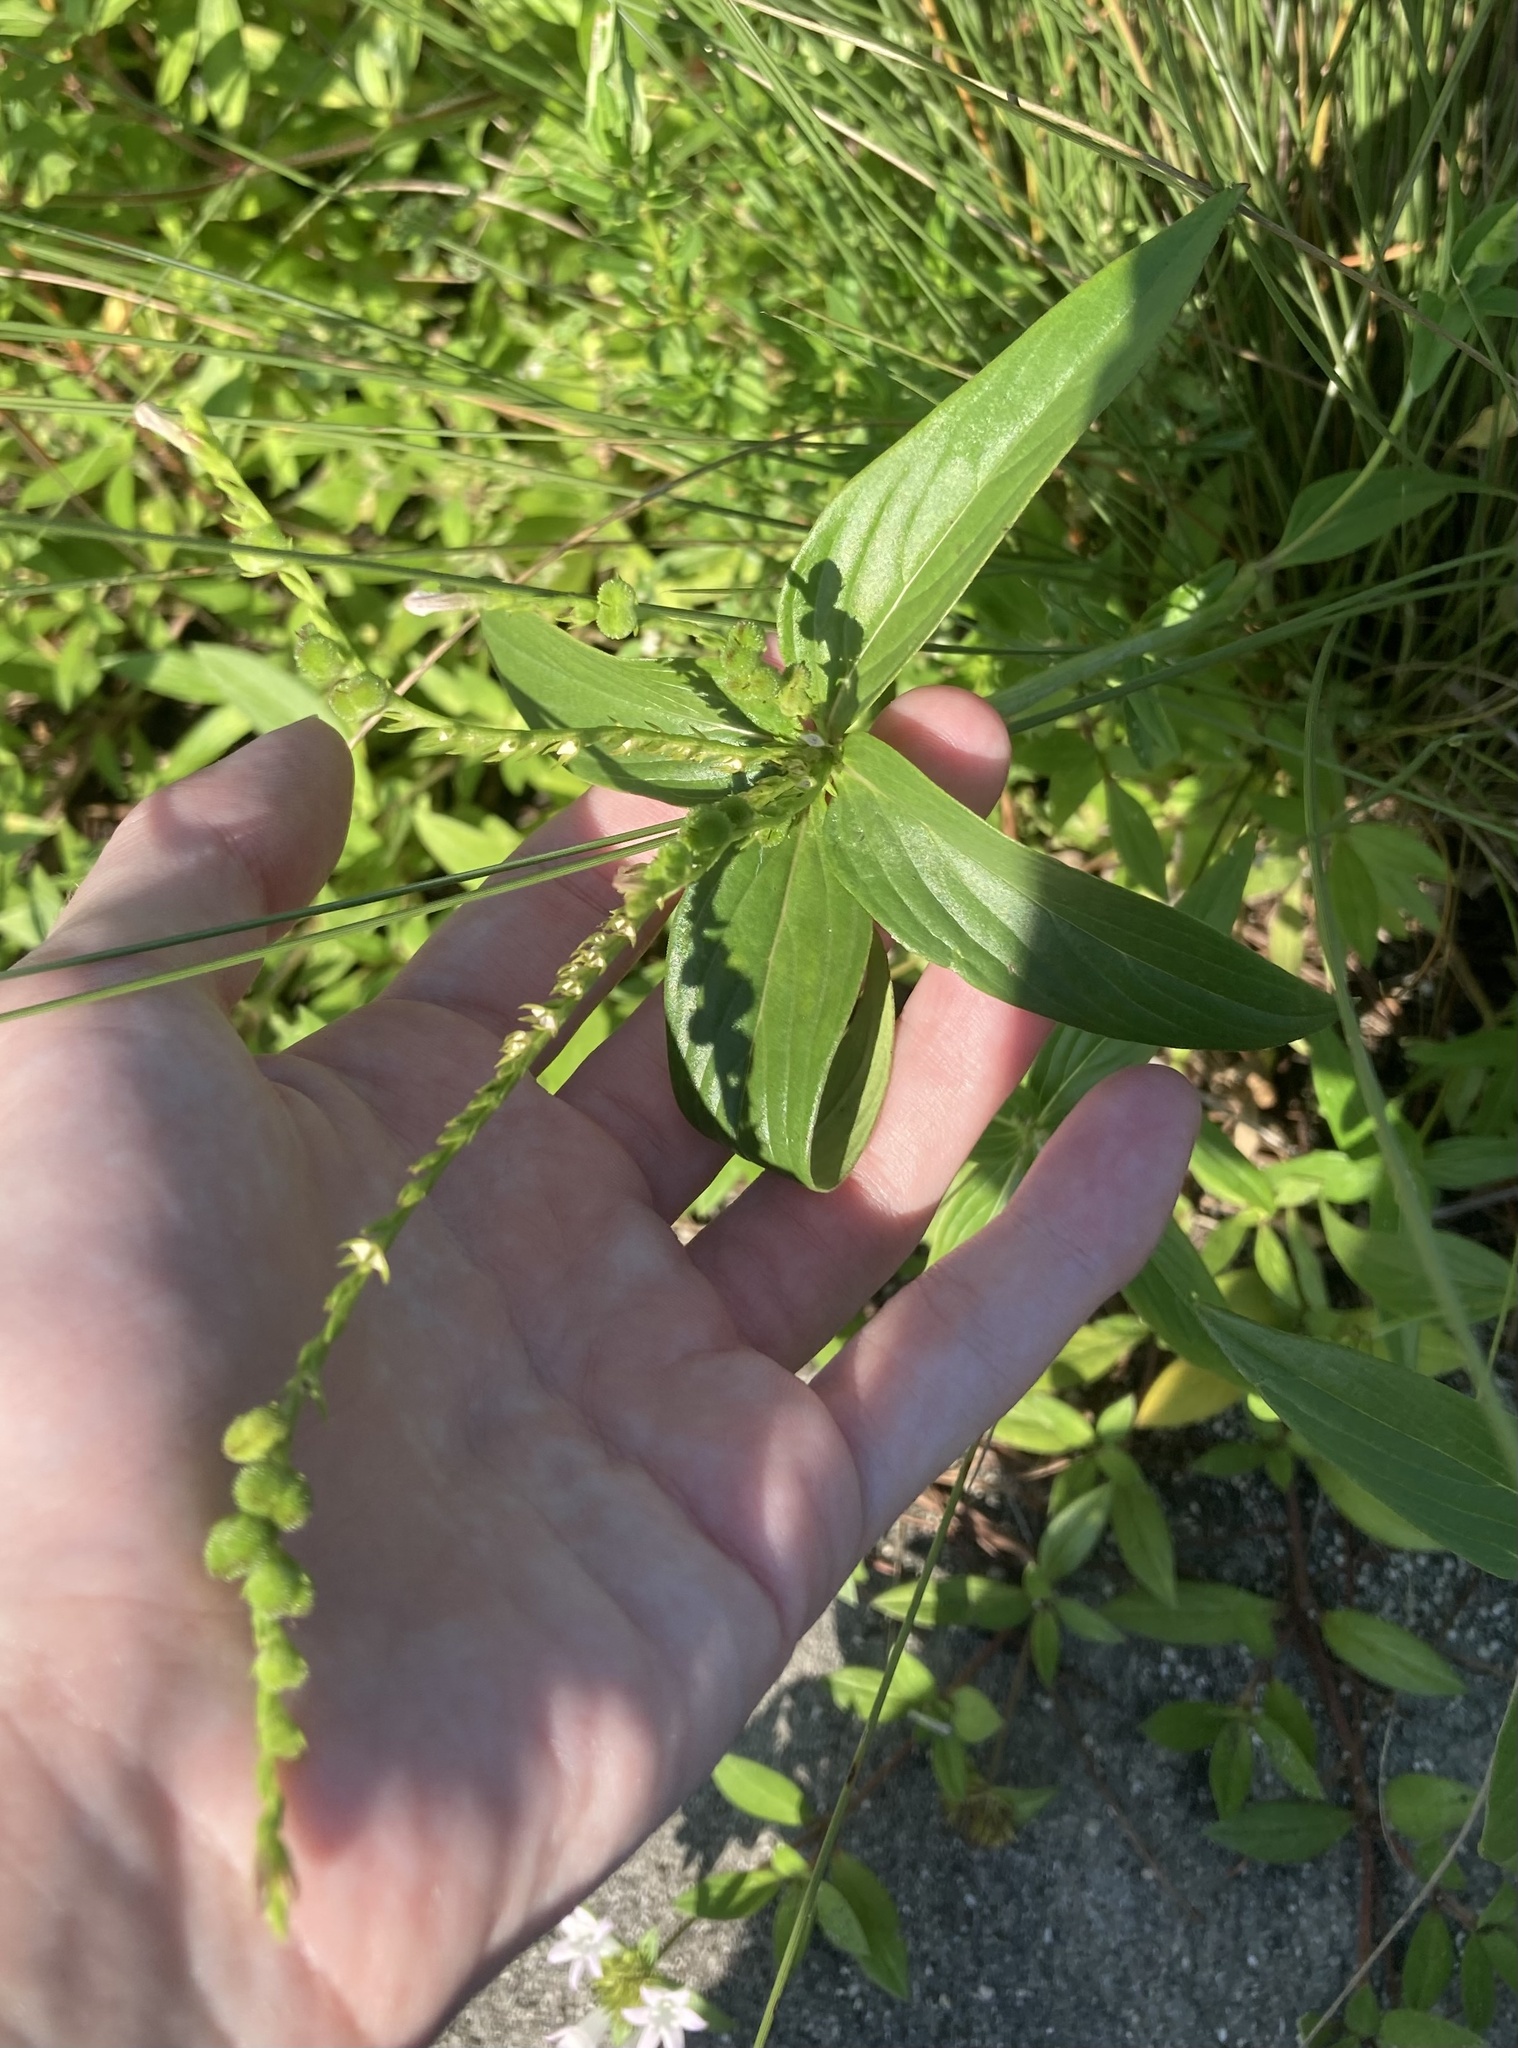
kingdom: Plantae
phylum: Tracheophyta
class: Magnoliopsida
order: Gentianales
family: Loganiaceae
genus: Spigelia
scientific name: Spigelia anthelmia
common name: West indian-pink
